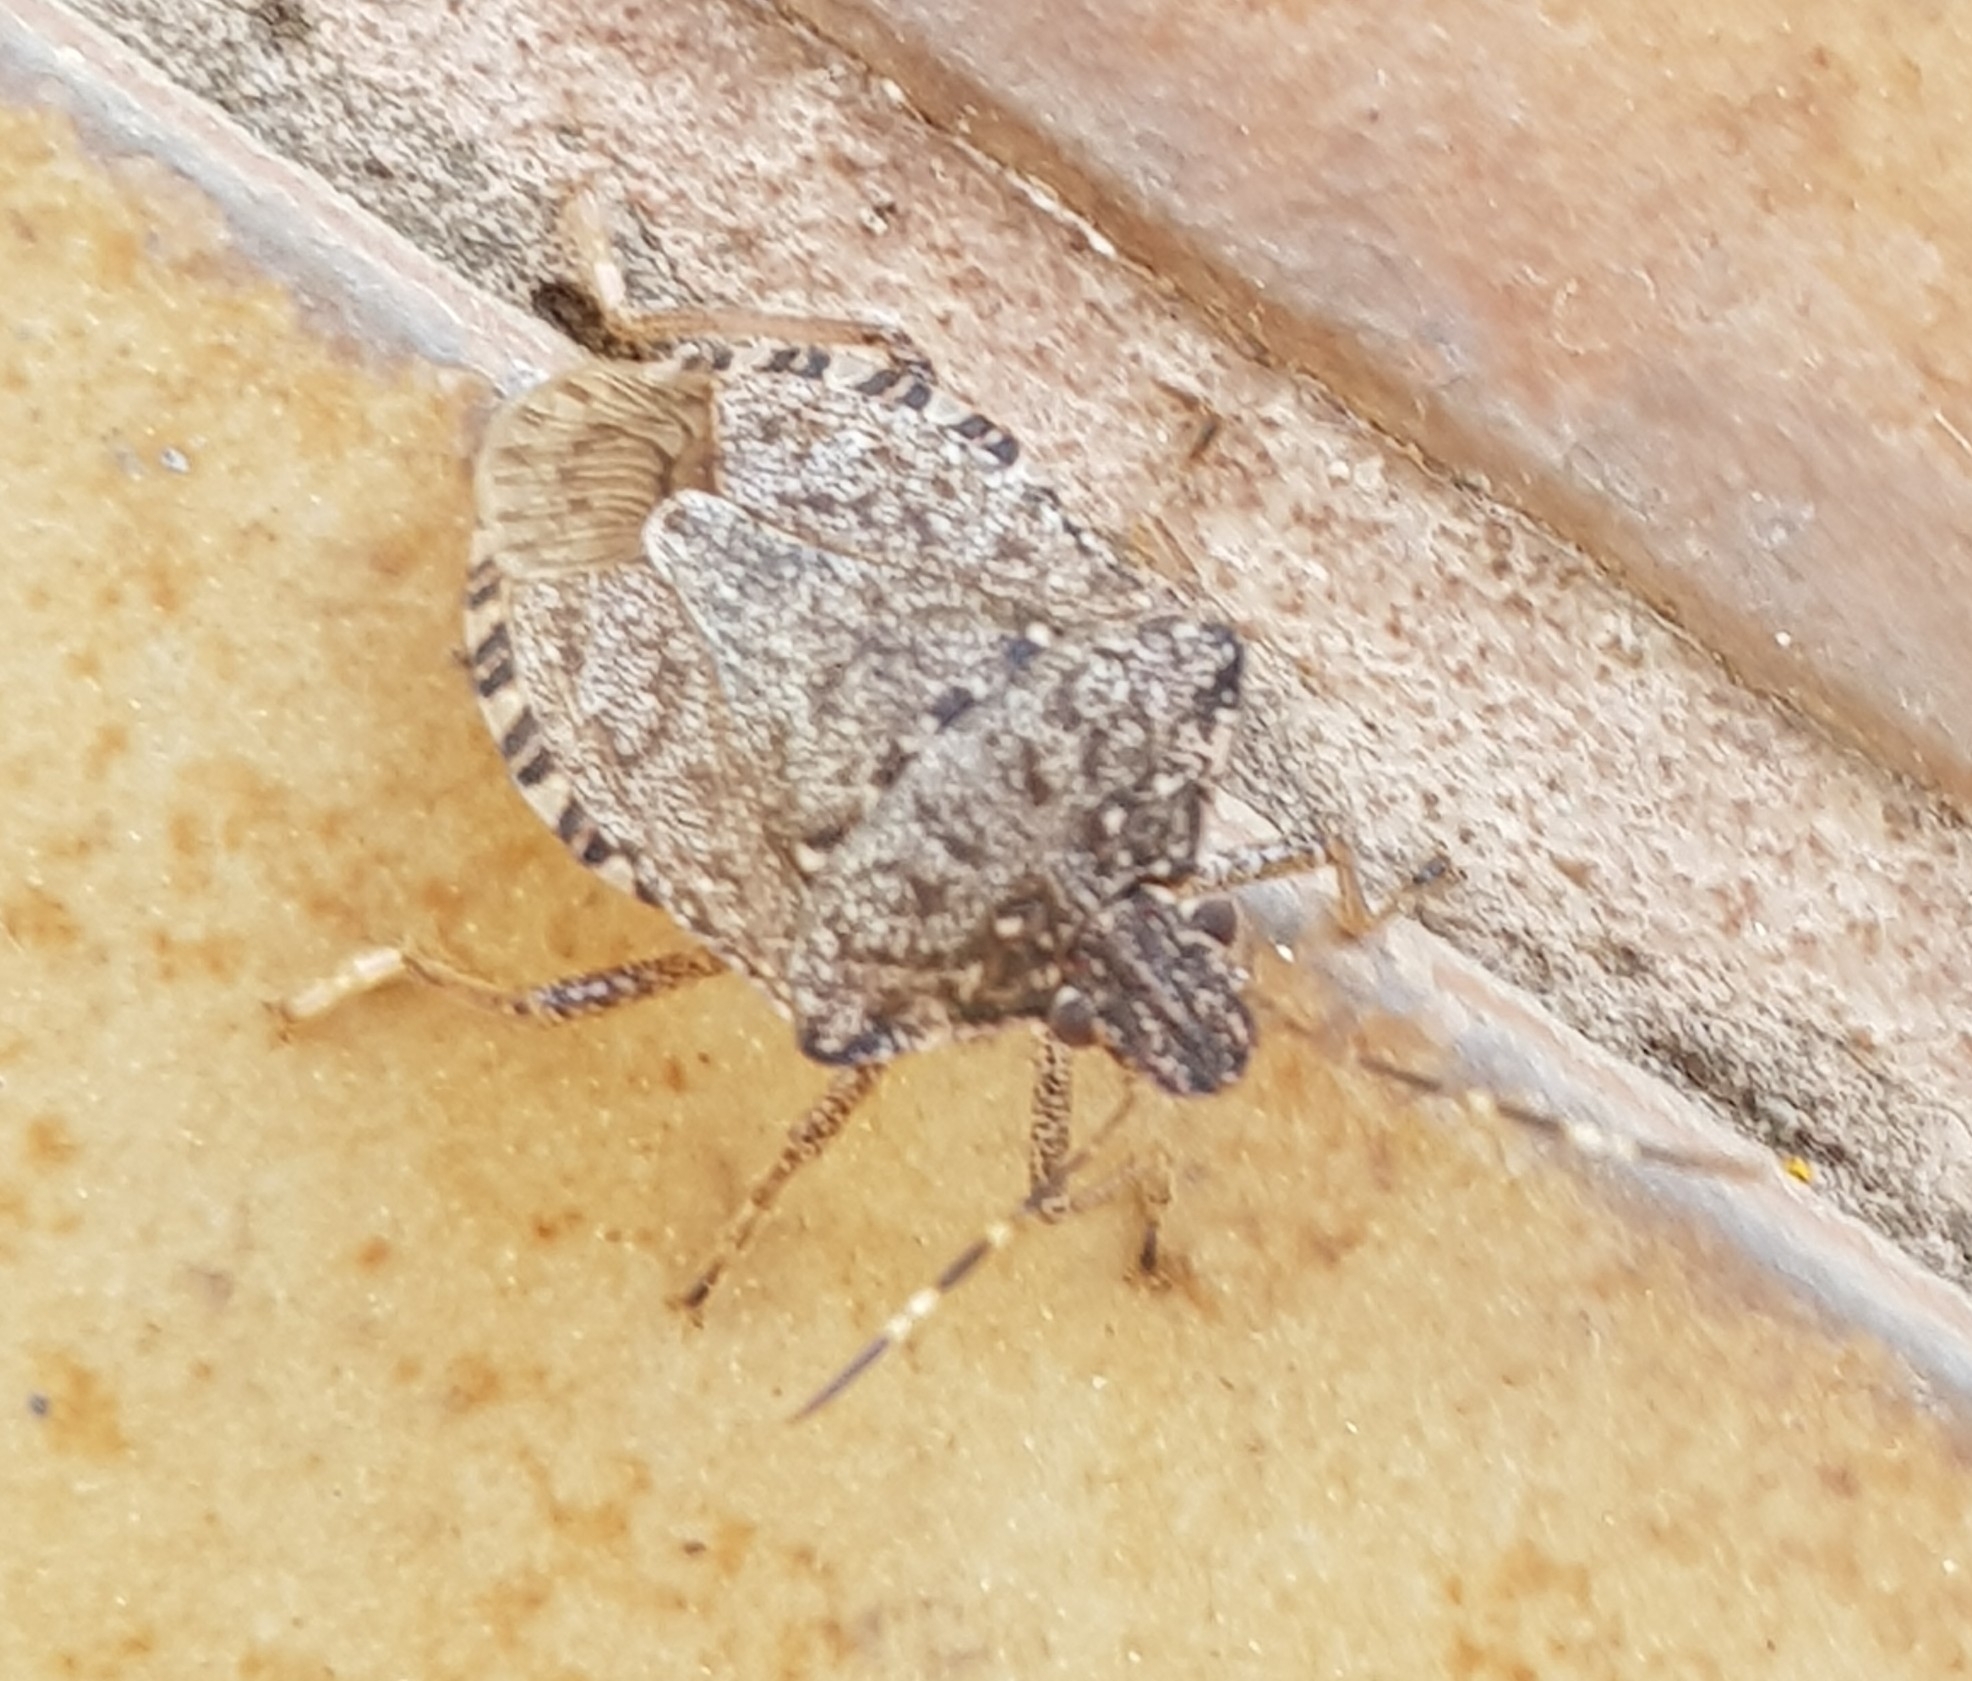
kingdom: Animalia
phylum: Arthropoda
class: Insecta
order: Hemiptera
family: Pentatomidae
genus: Halyomorpha
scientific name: Halyomorpha halys
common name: Brown marmorated stink bug
